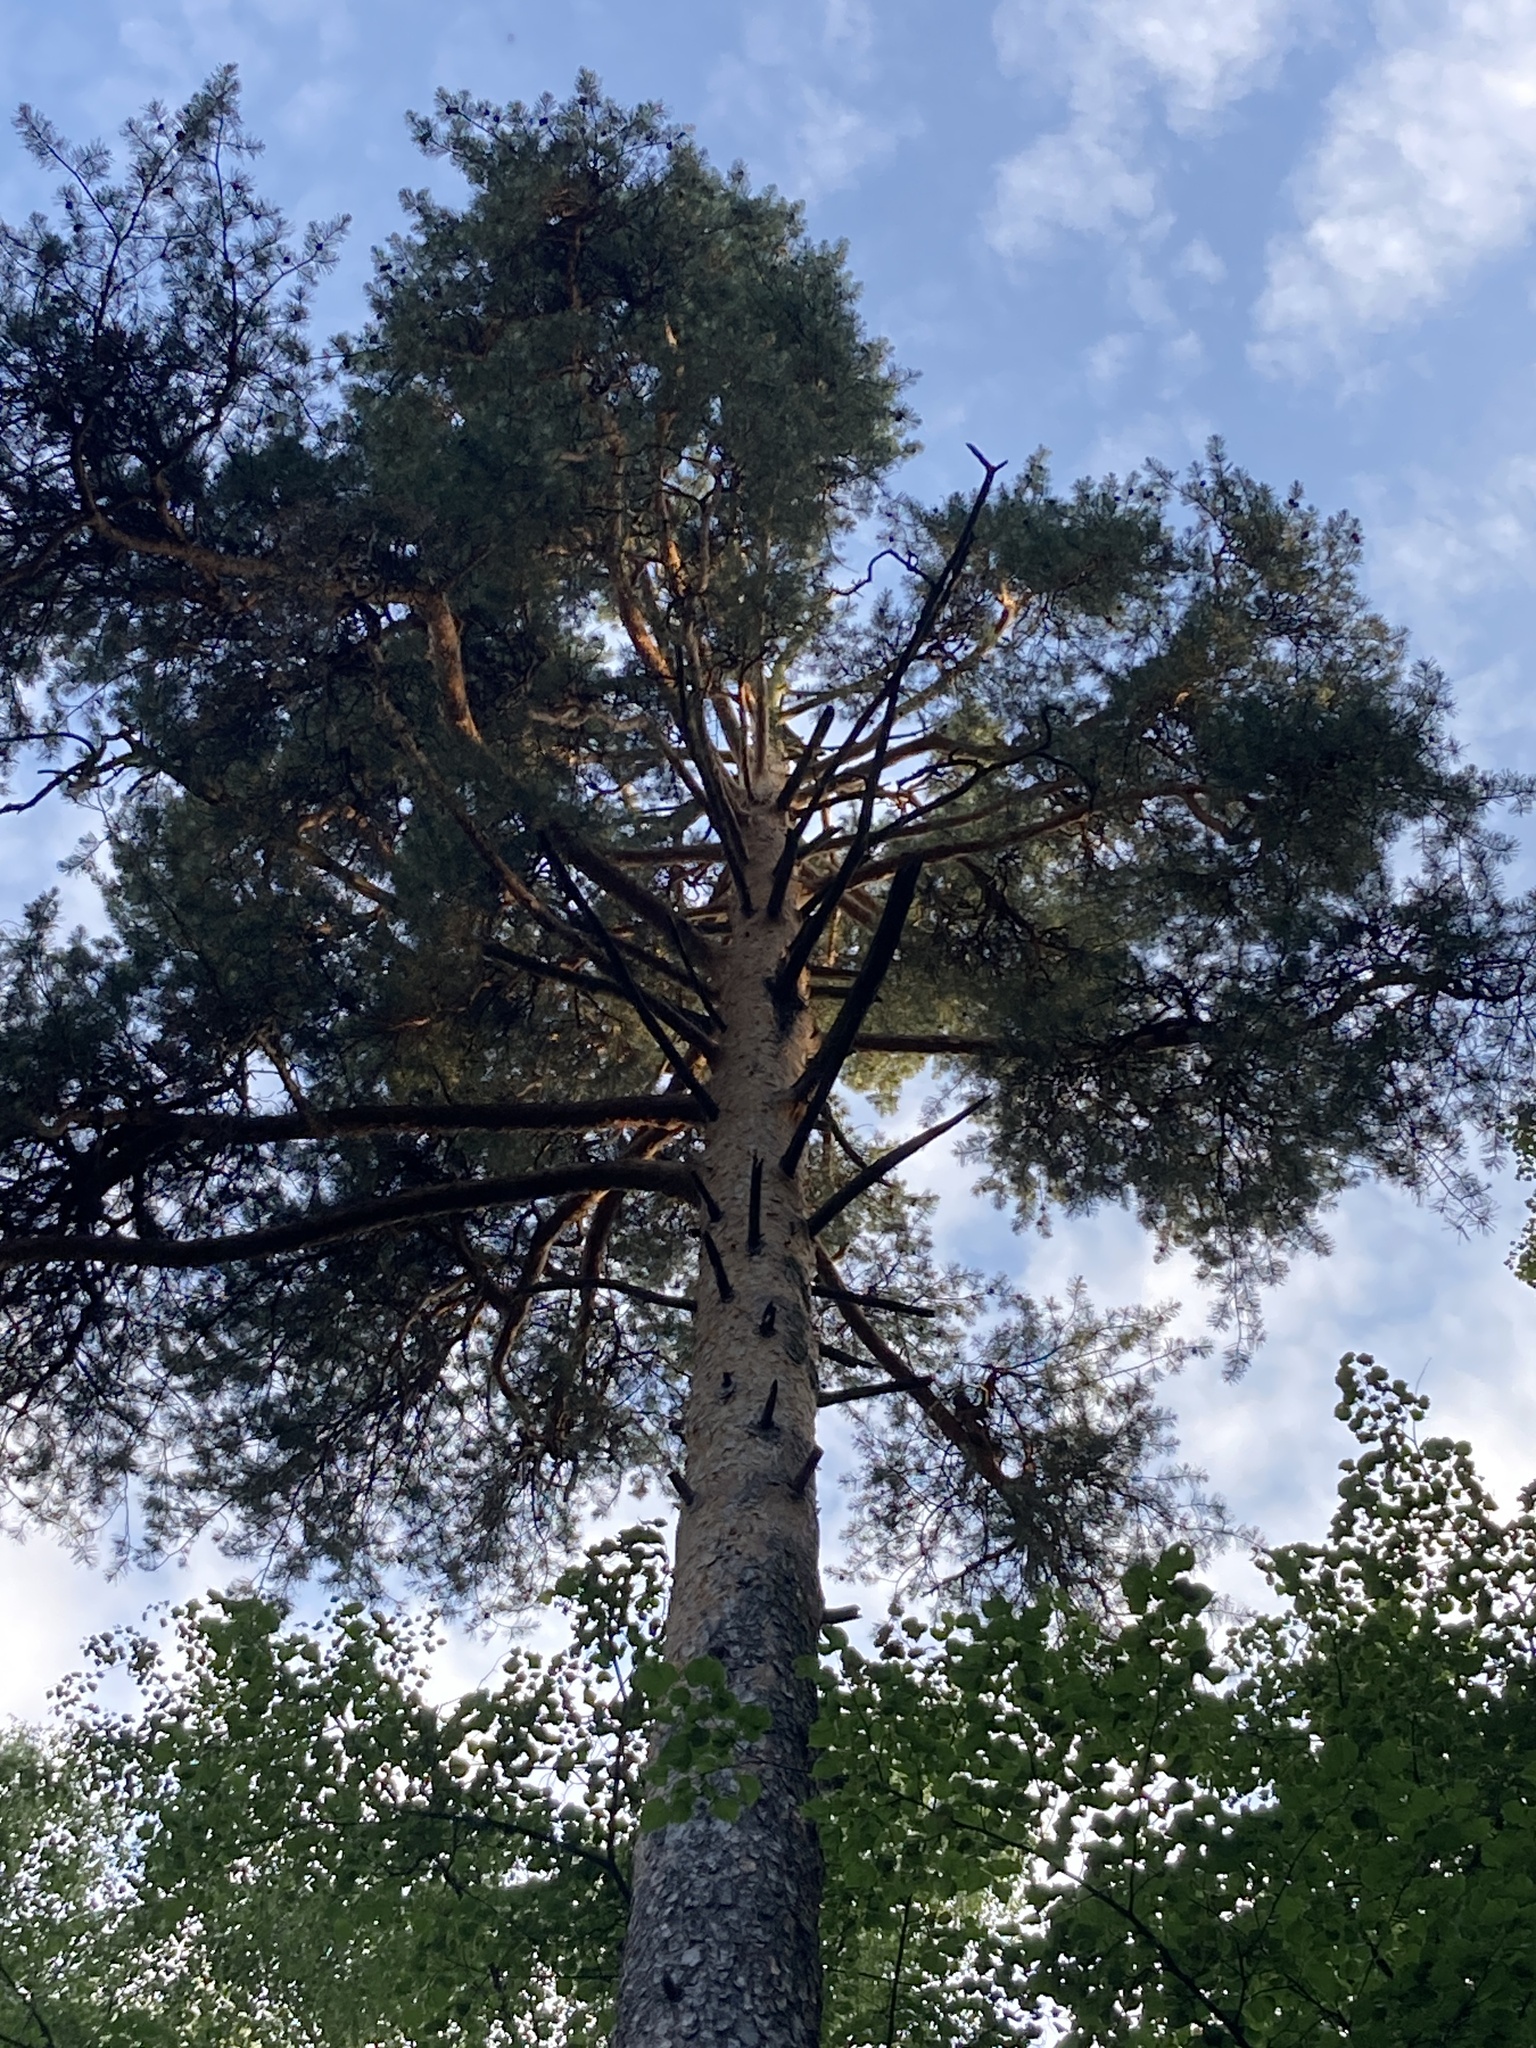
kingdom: Plantae
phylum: Tracheophyta
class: Pinopsida
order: Pinales
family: Pinaceae
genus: Pinus
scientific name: Pinus sylvestris
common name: Scots pine
